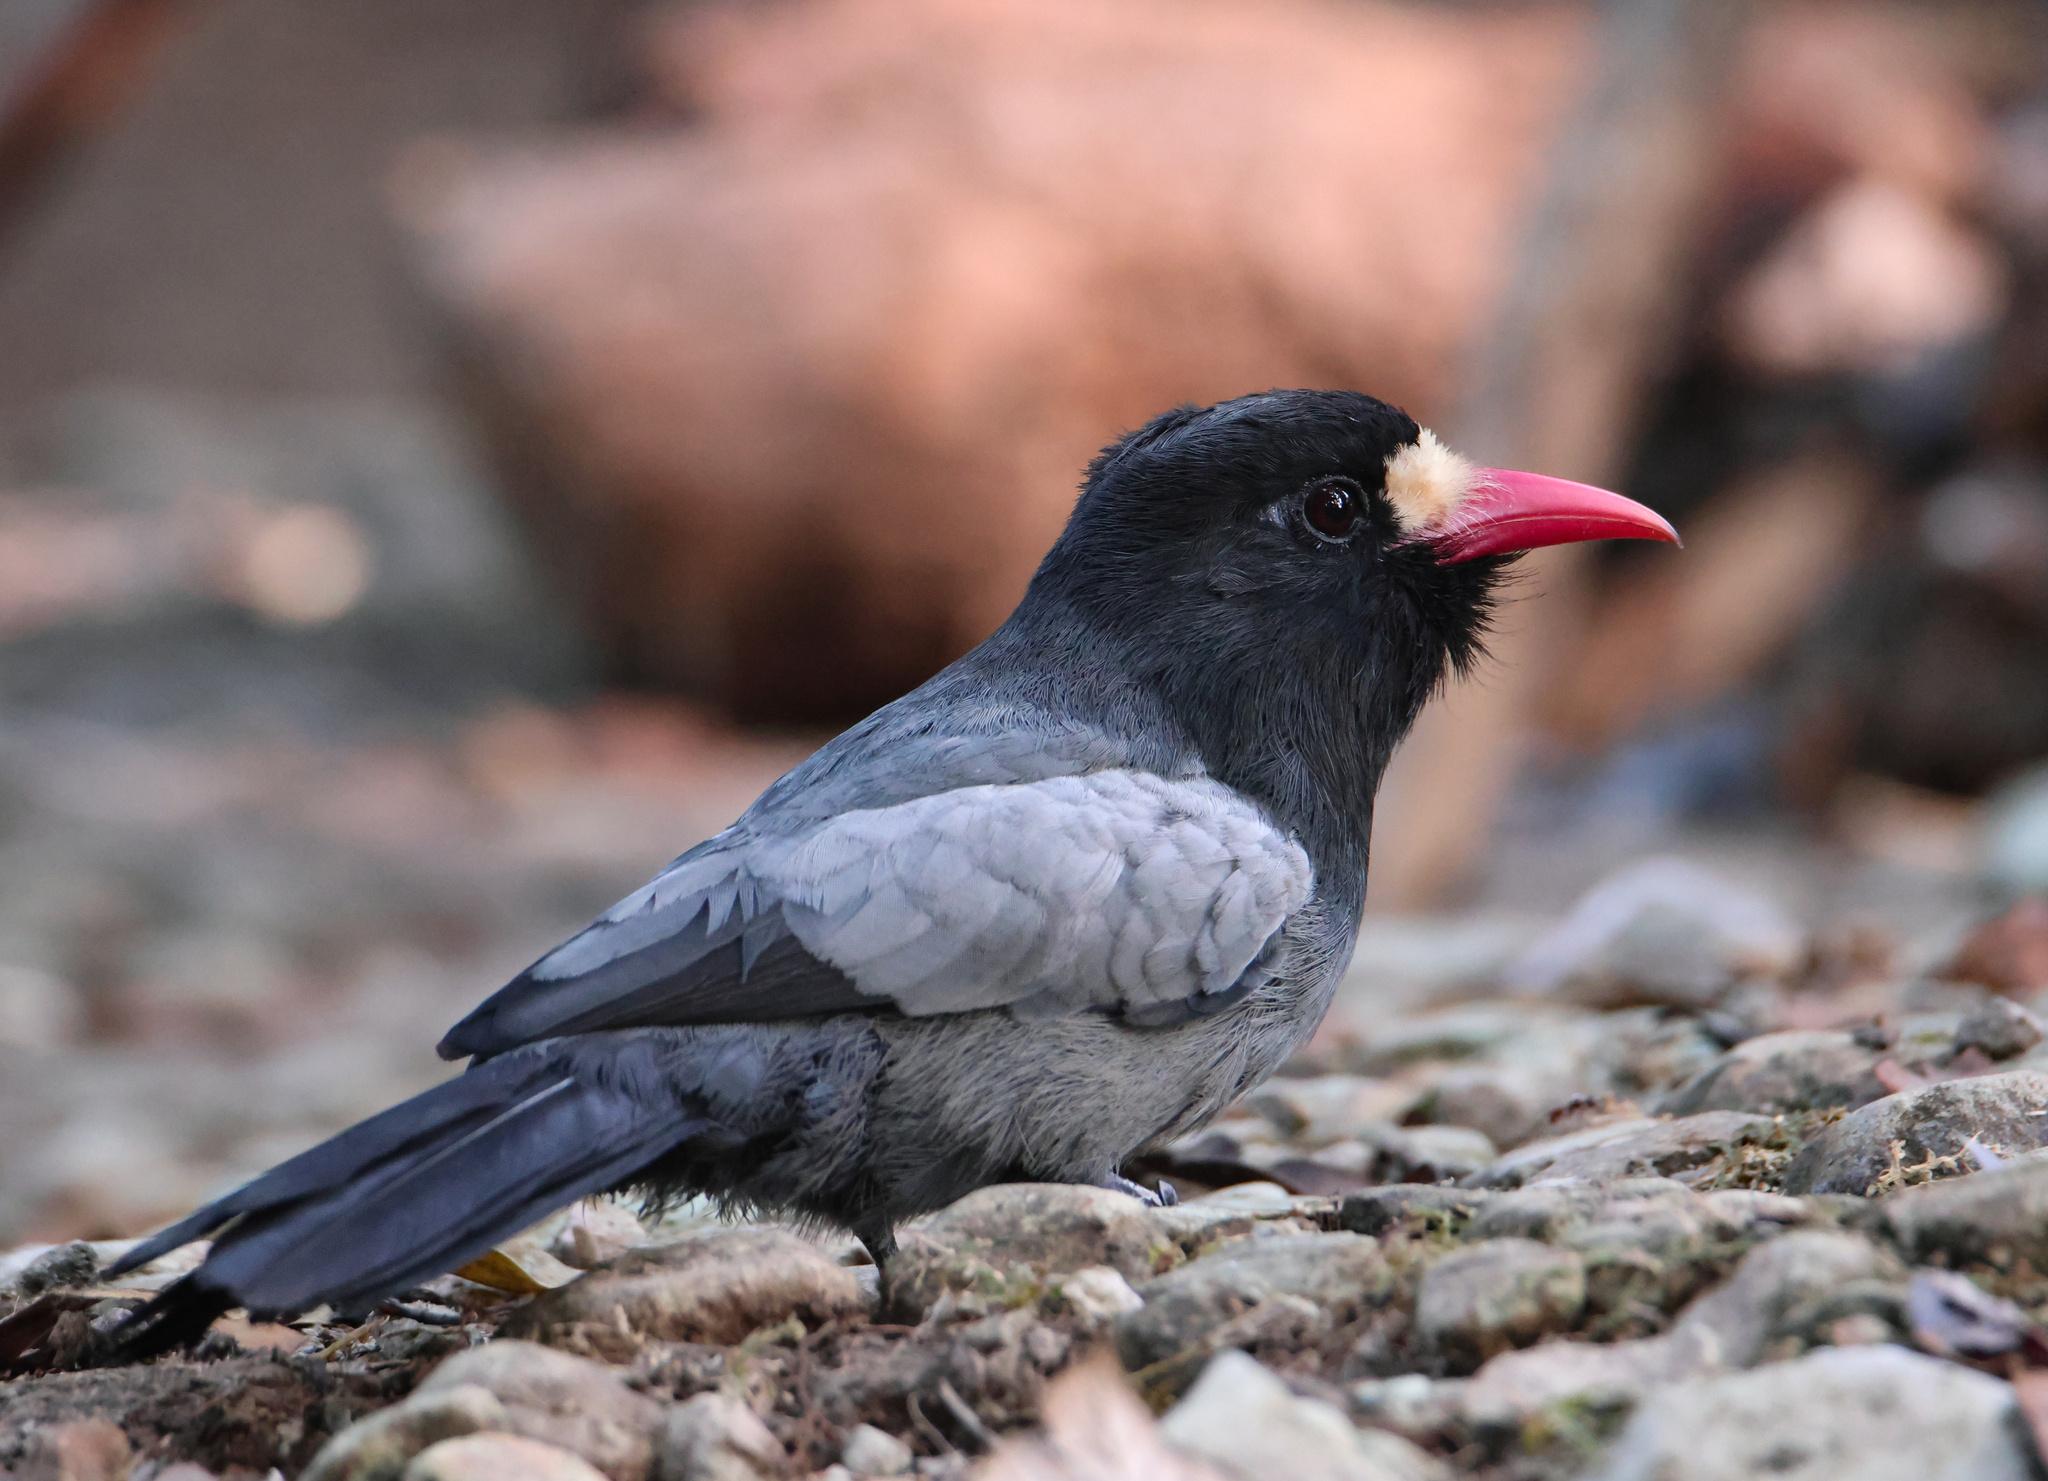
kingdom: Animalia
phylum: Chordata
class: Aves
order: Piciformes
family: Bucconidae
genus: Monasa
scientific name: Monasa morphoeus
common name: White-fronted nunbird
